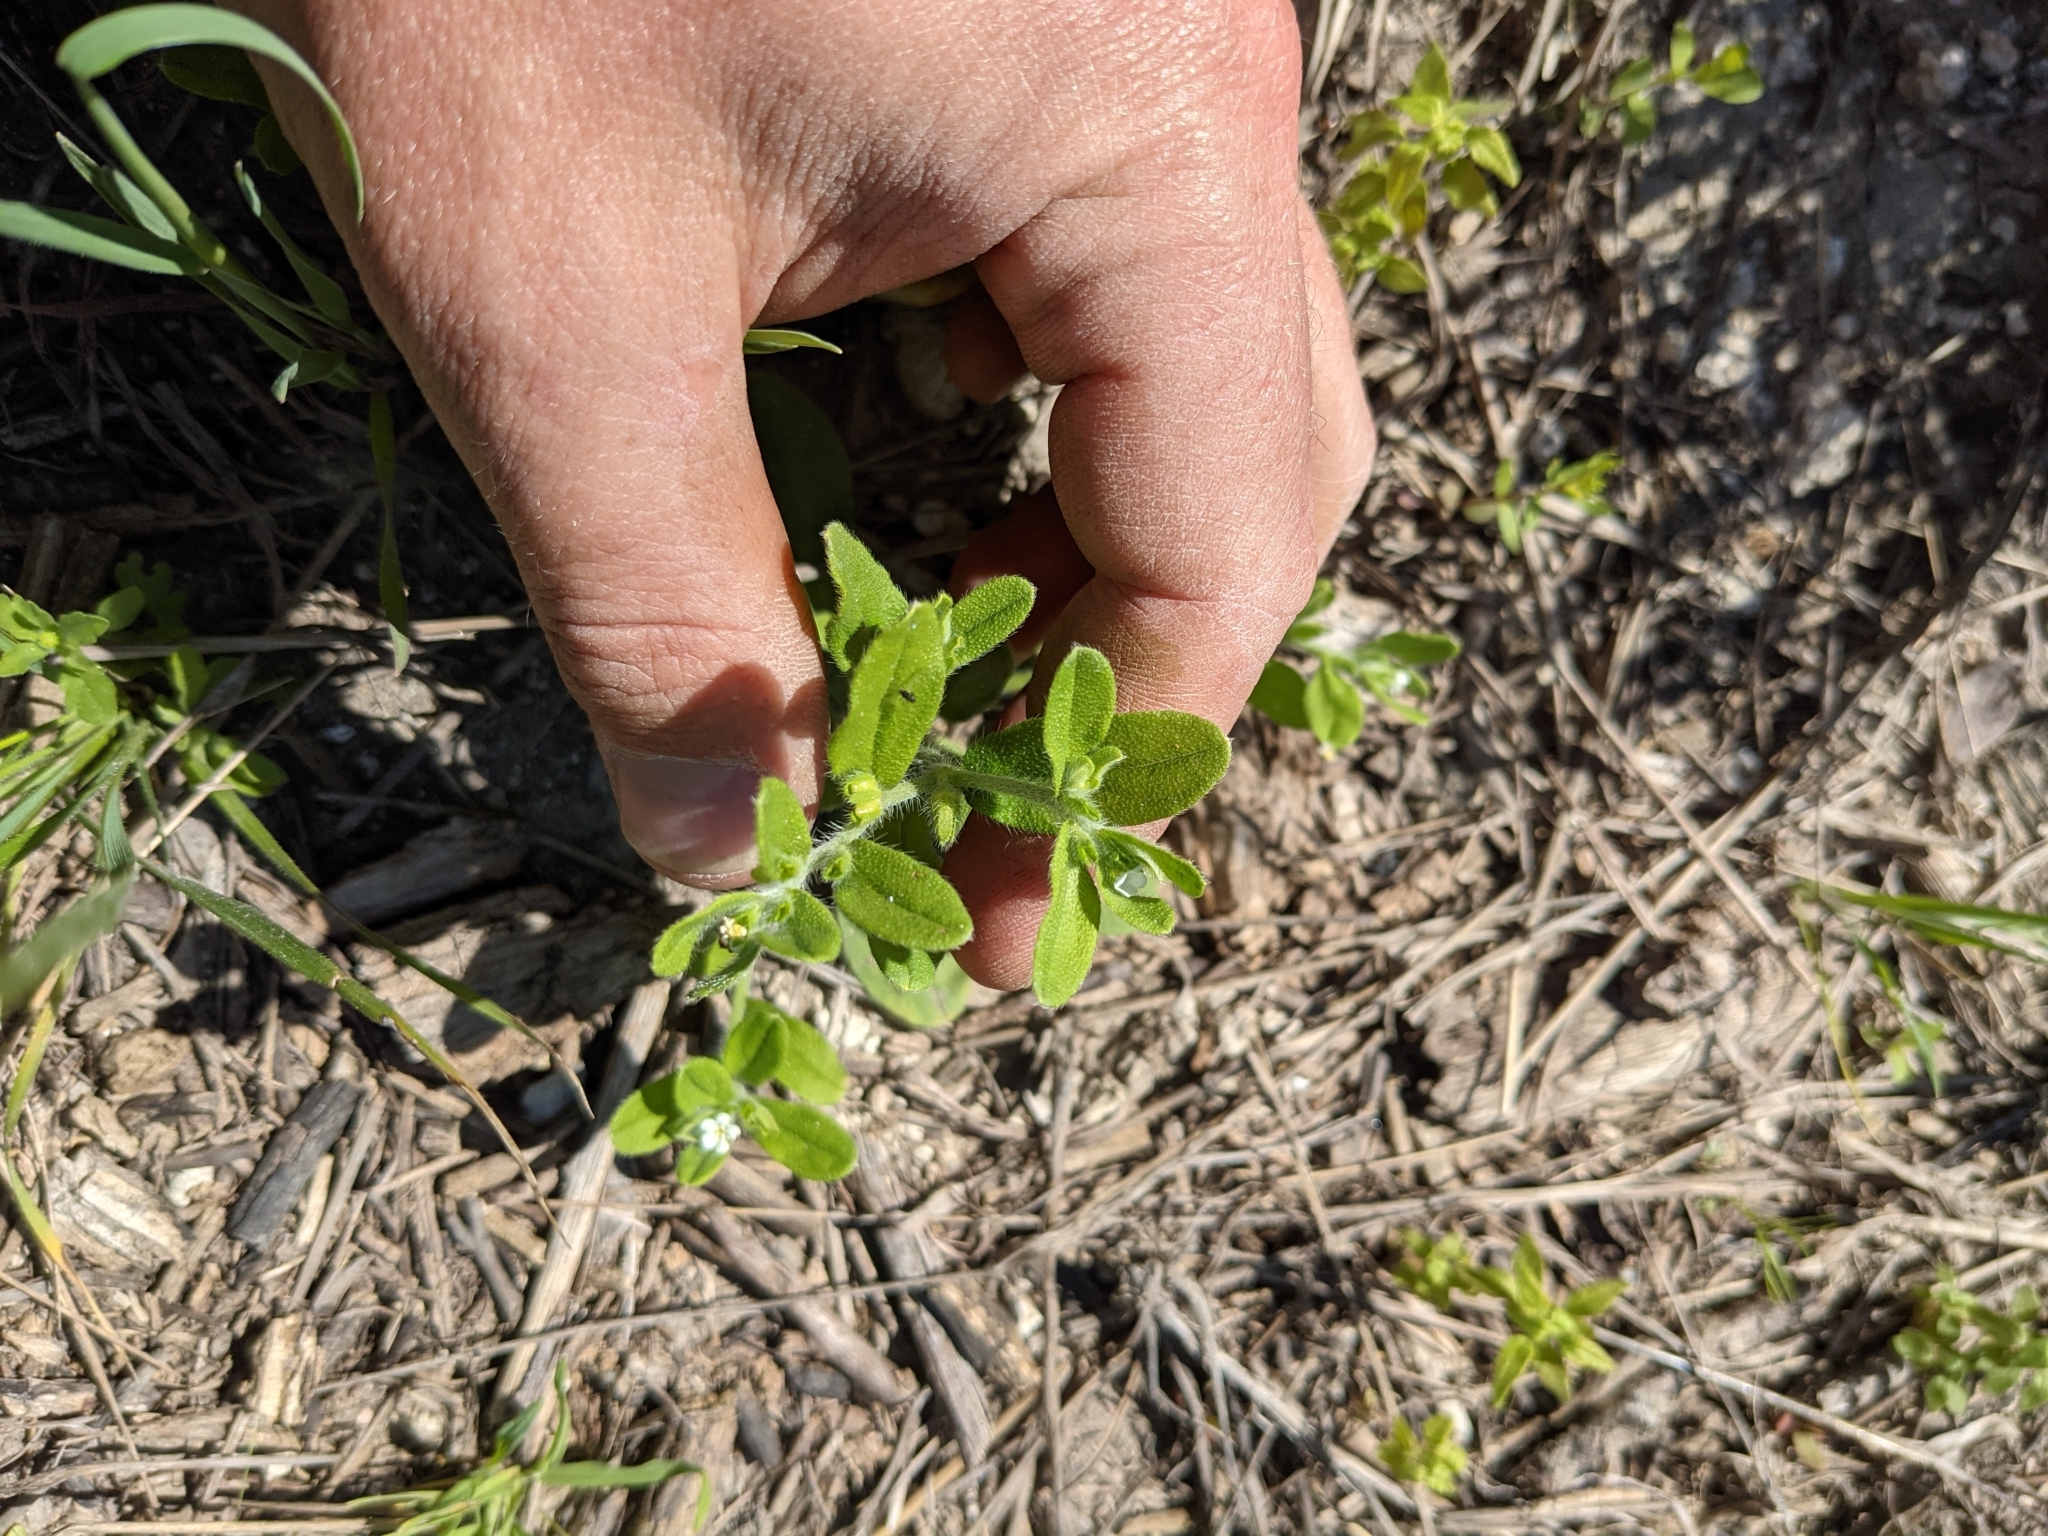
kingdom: Plantae
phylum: Tracheophyta
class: Magnoliopsida
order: Boraginales
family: Boraginaceae
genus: Lithospermum
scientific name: Lithospermum matamorense
